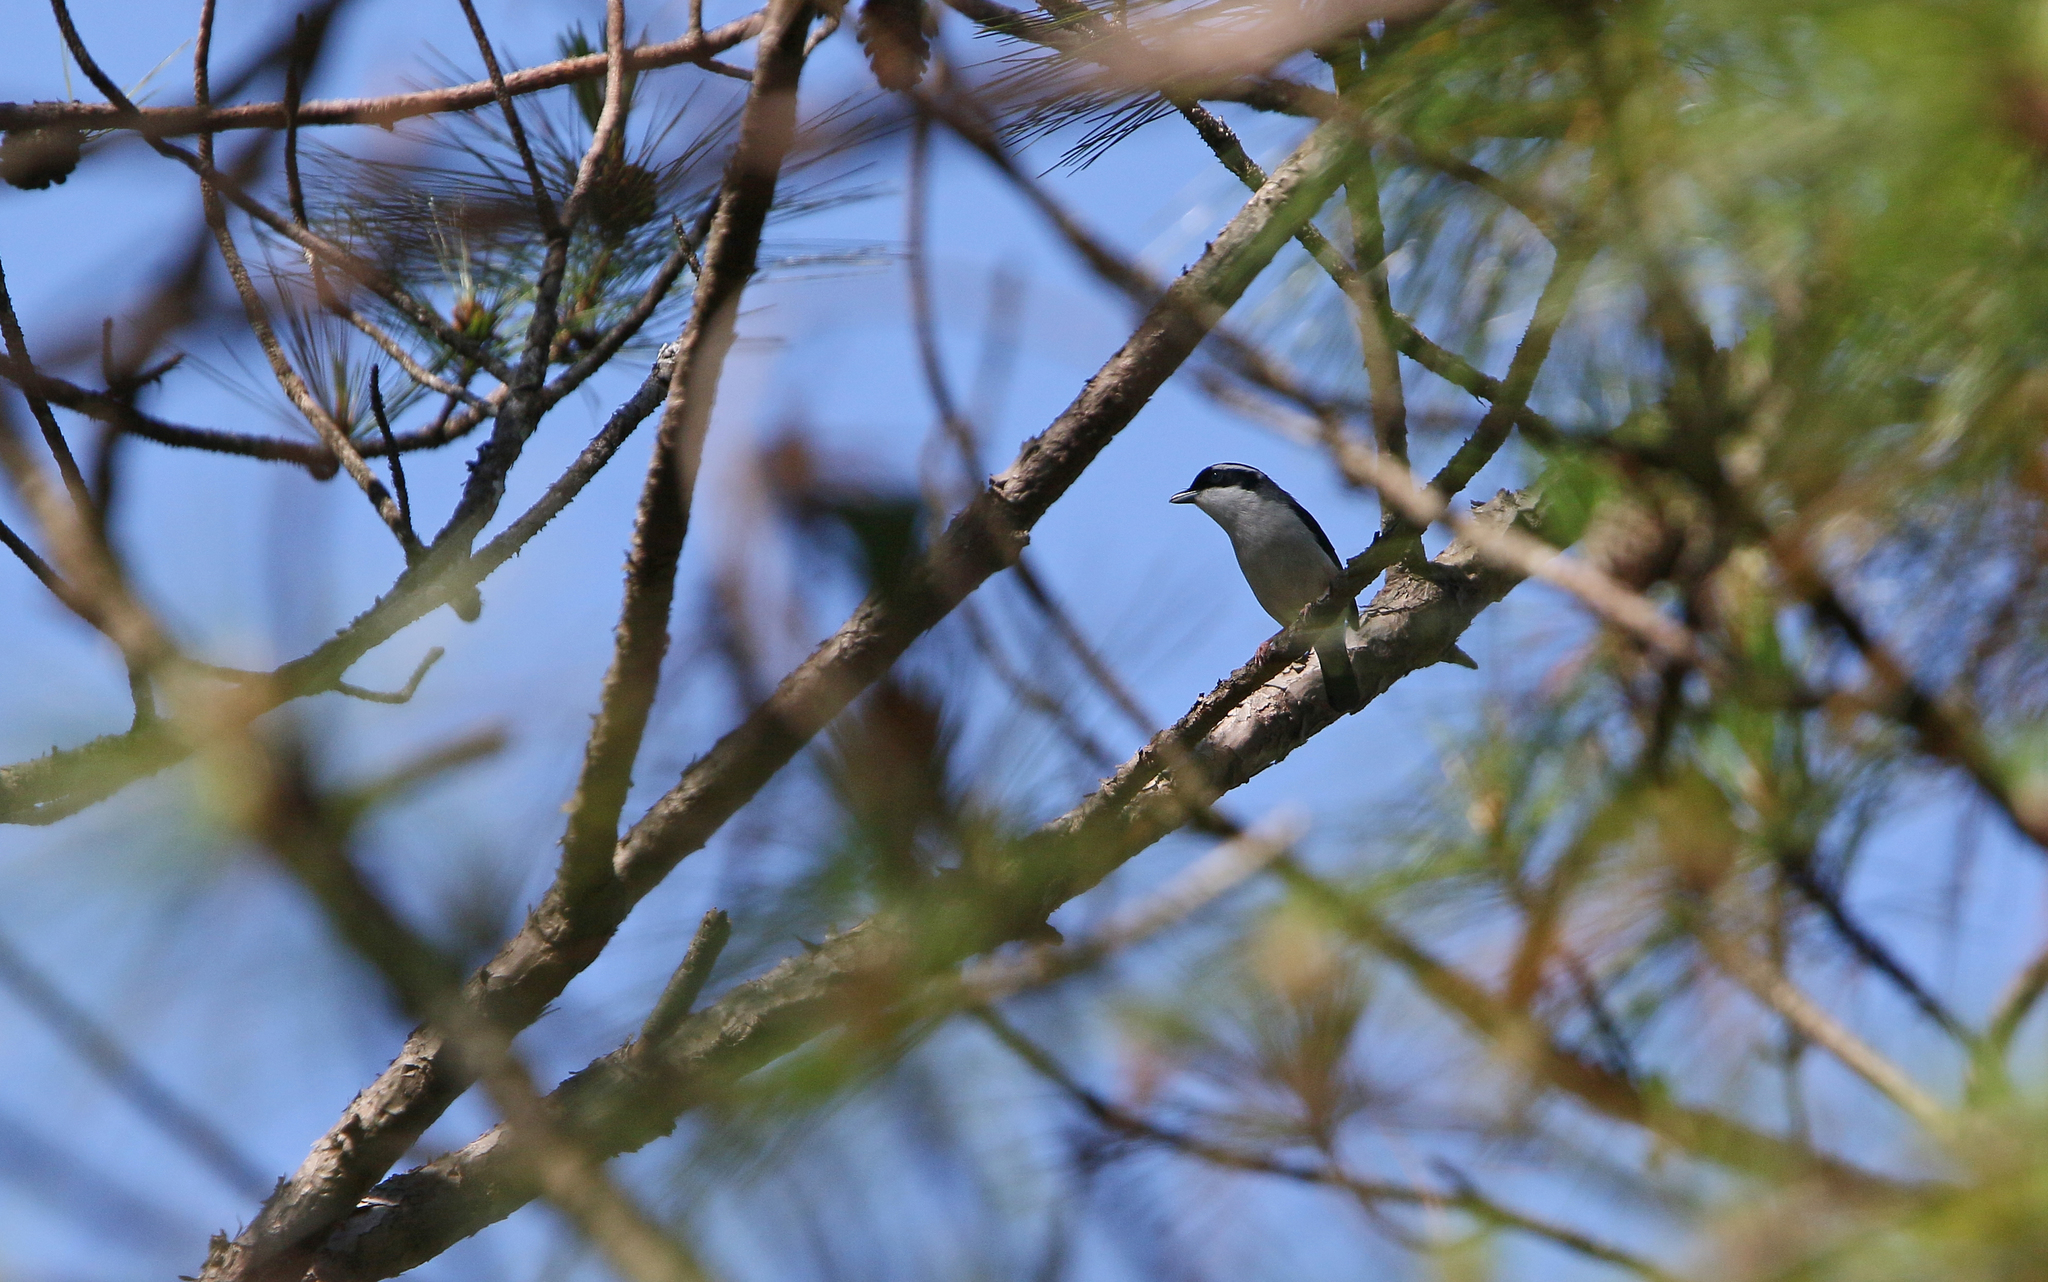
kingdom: Animalia
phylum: Chordata
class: Aves
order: Passeriformes
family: Vireonidae
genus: Pteruthius
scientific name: Pteruthius aeralatus
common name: Blyth's shrike-babbler
